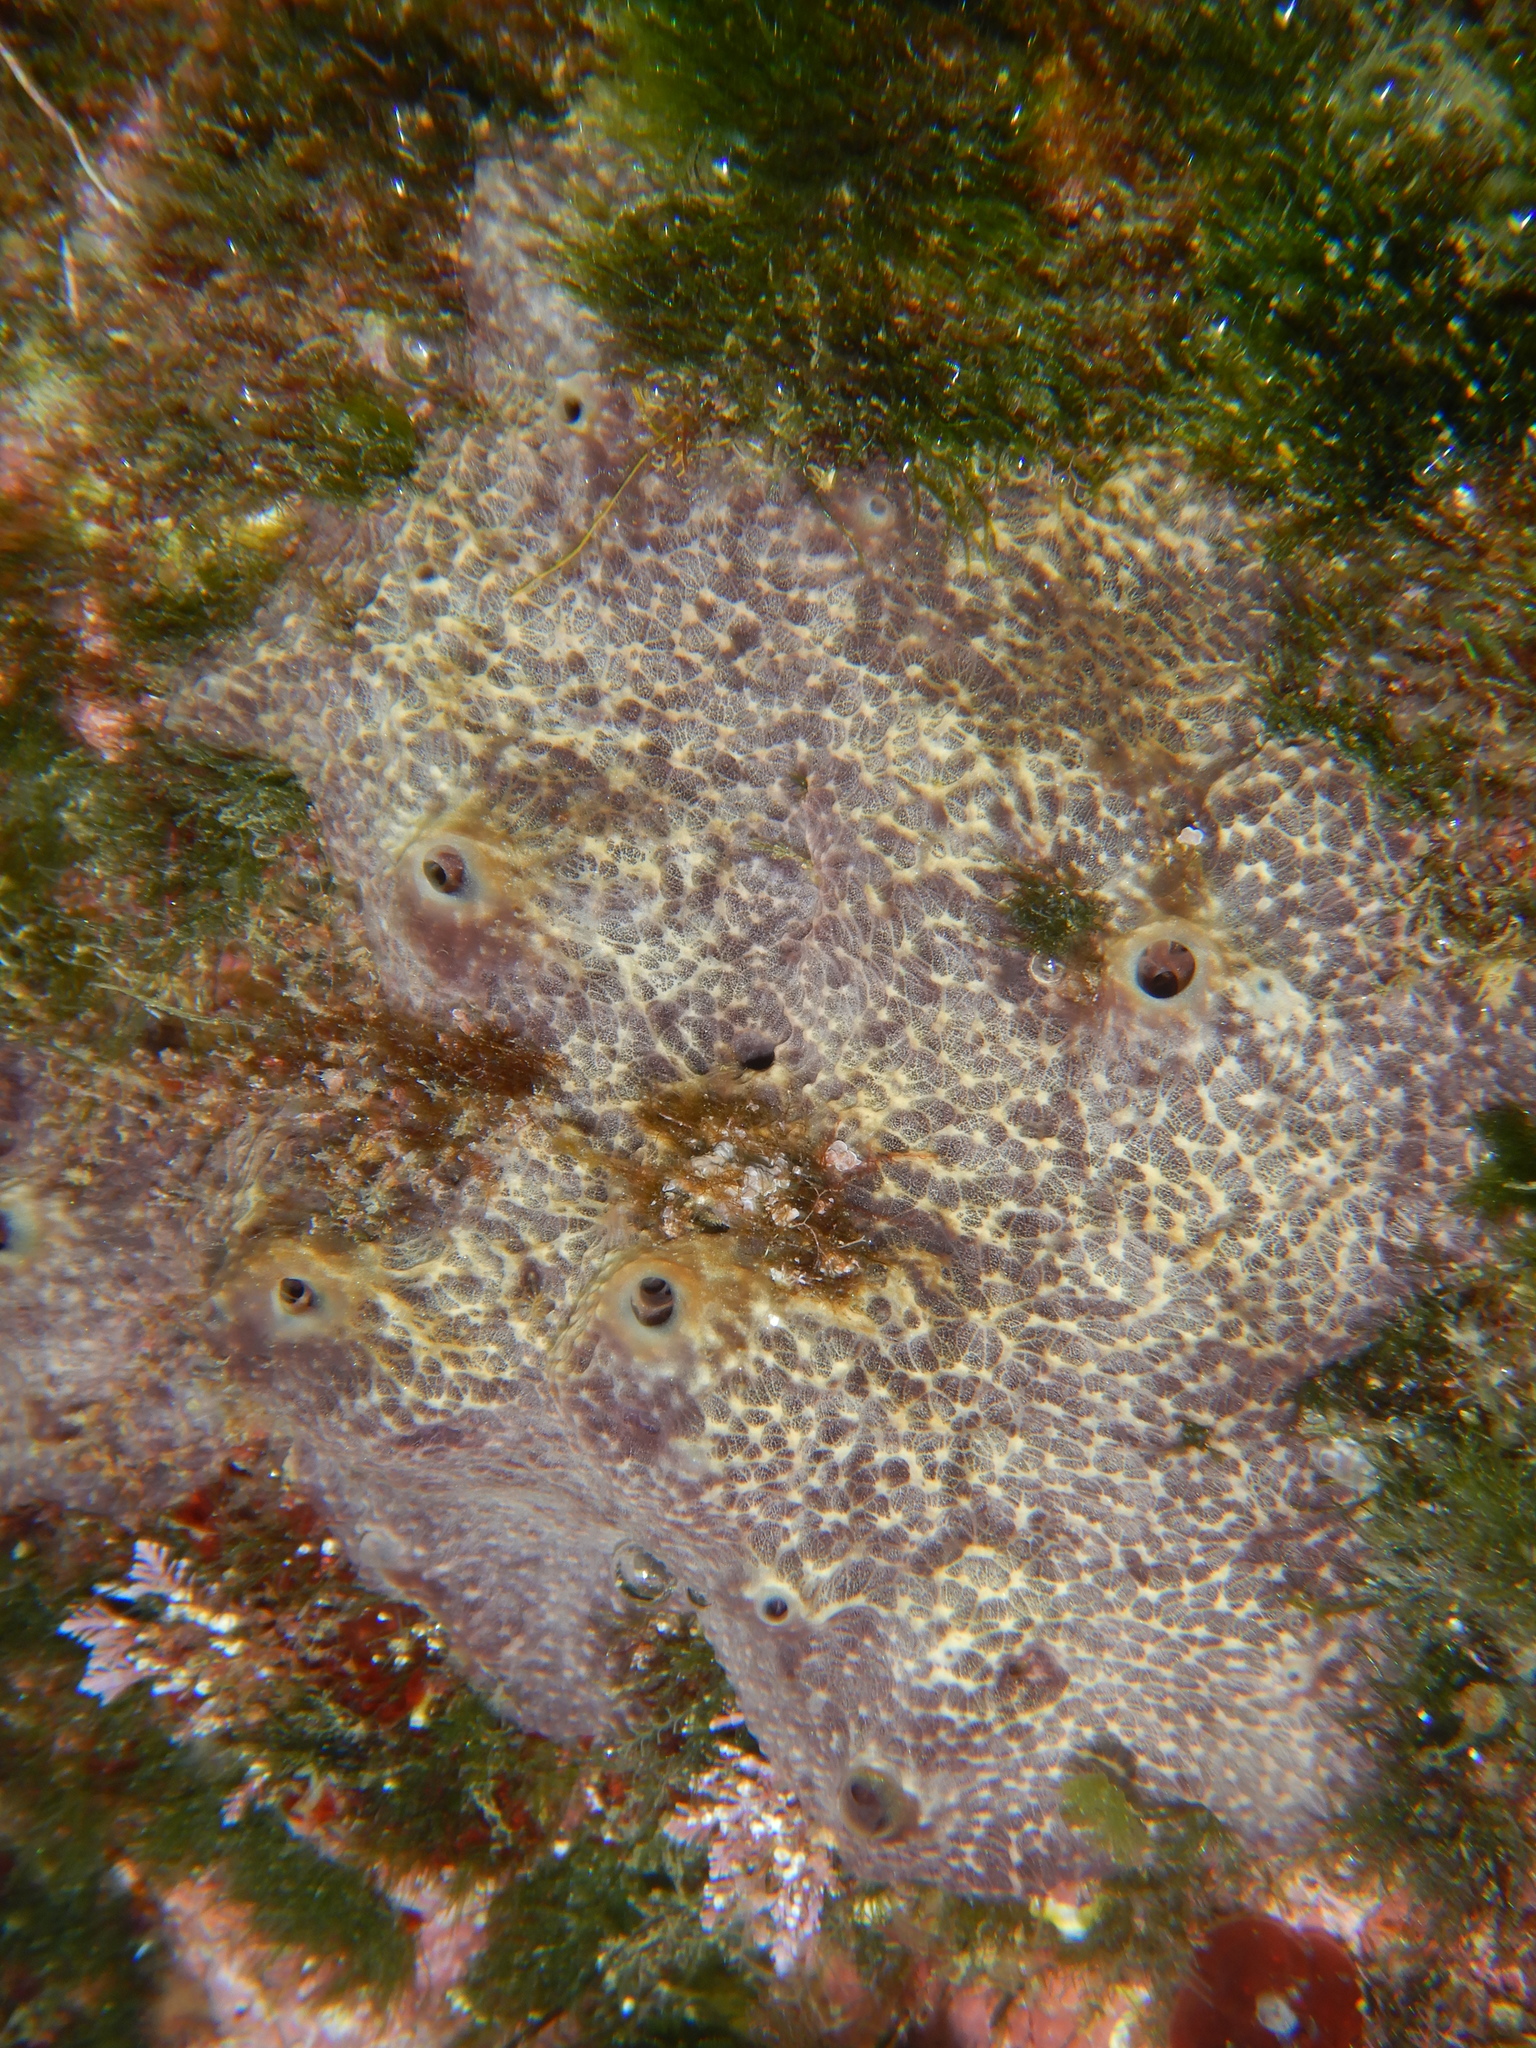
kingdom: Animalia
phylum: Porifera
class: Demospongiae
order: Dictyoceratida
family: Irciniidae
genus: Ircinia
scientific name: Ircinia variabilis
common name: Variable loggerhead sponge
